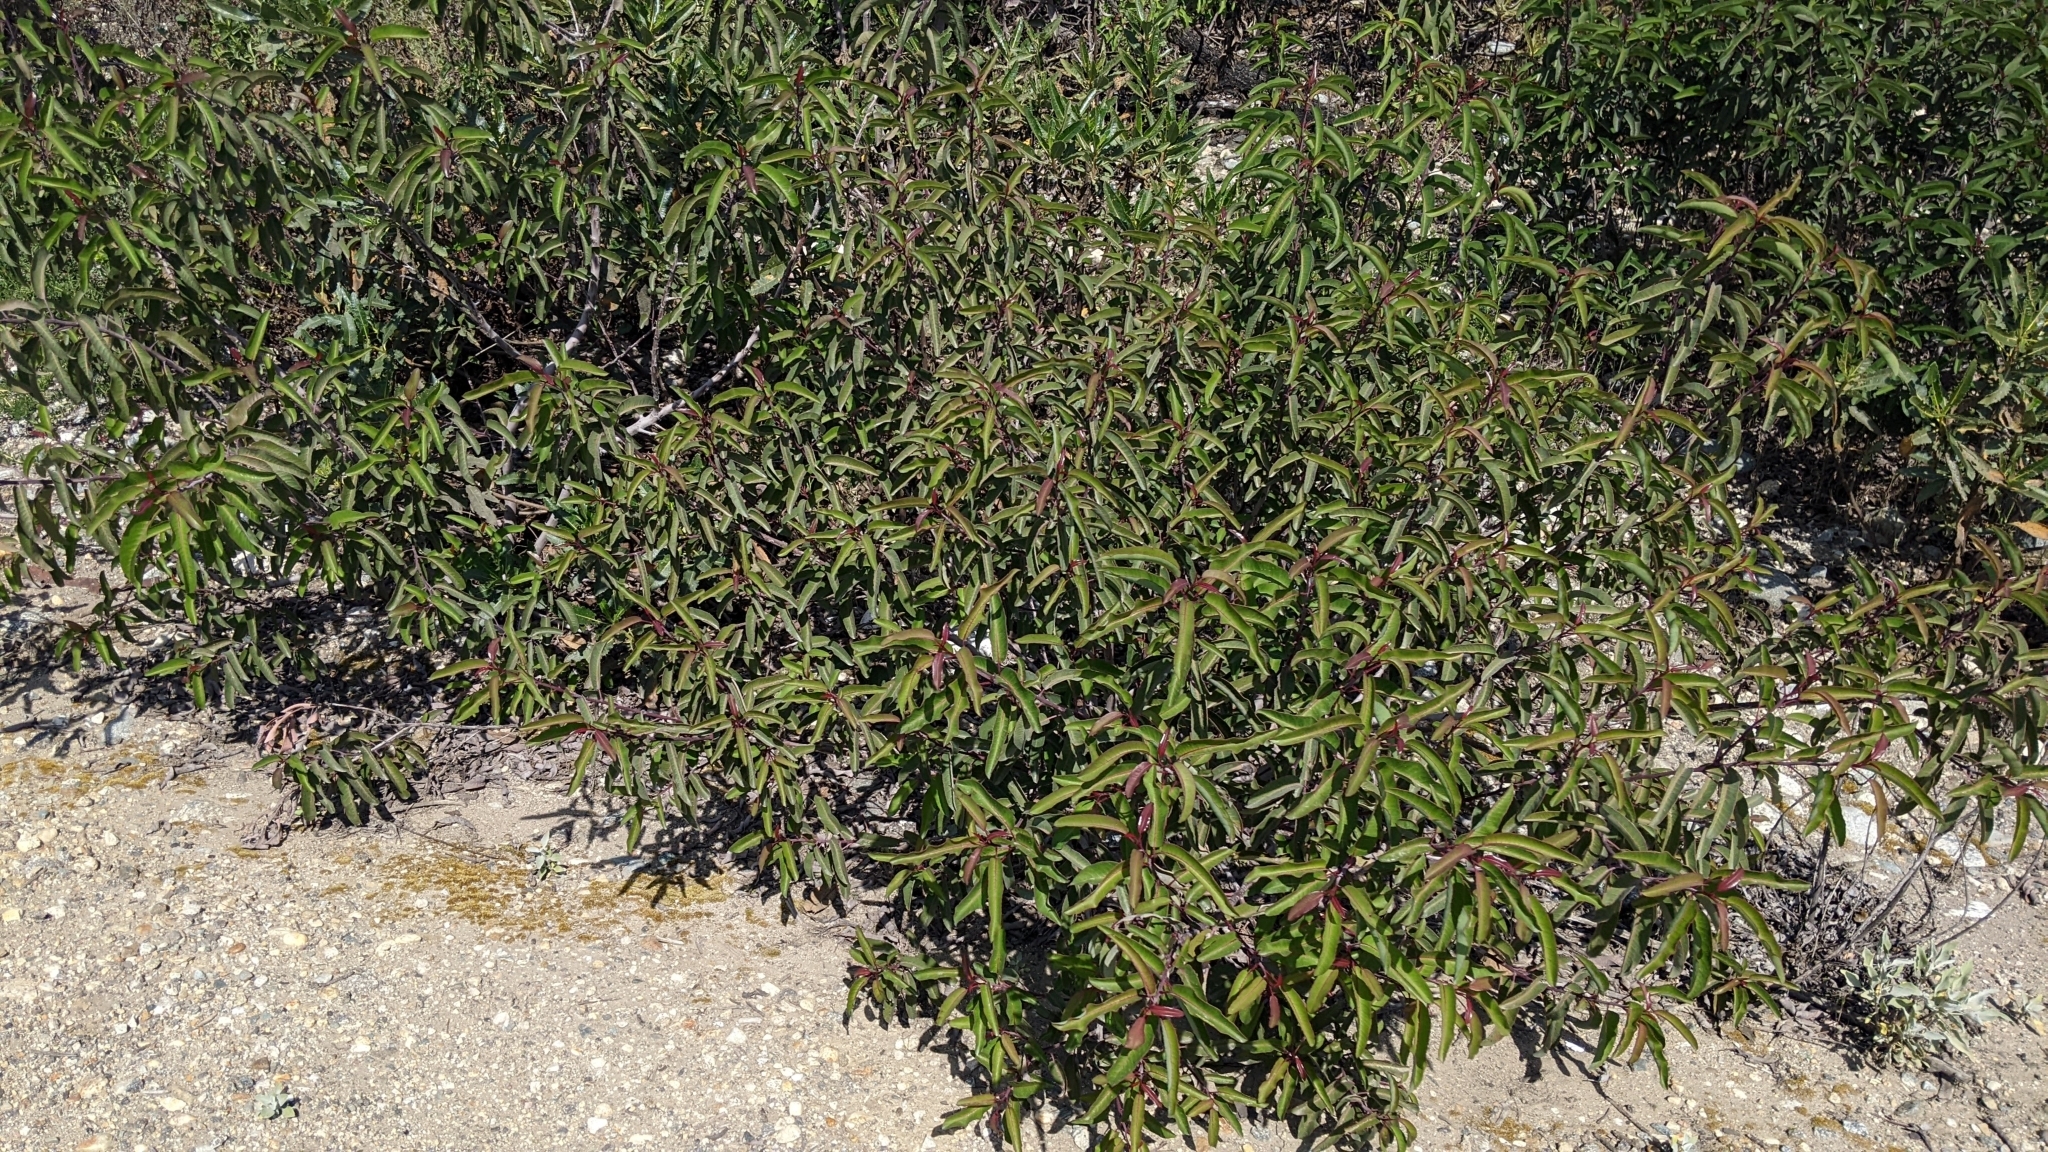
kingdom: Plantae
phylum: Tracheophyta
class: Magnoliopsida
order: Sapindales
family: Anacardiaceae
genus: Malosma
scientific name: Malosma laurina
